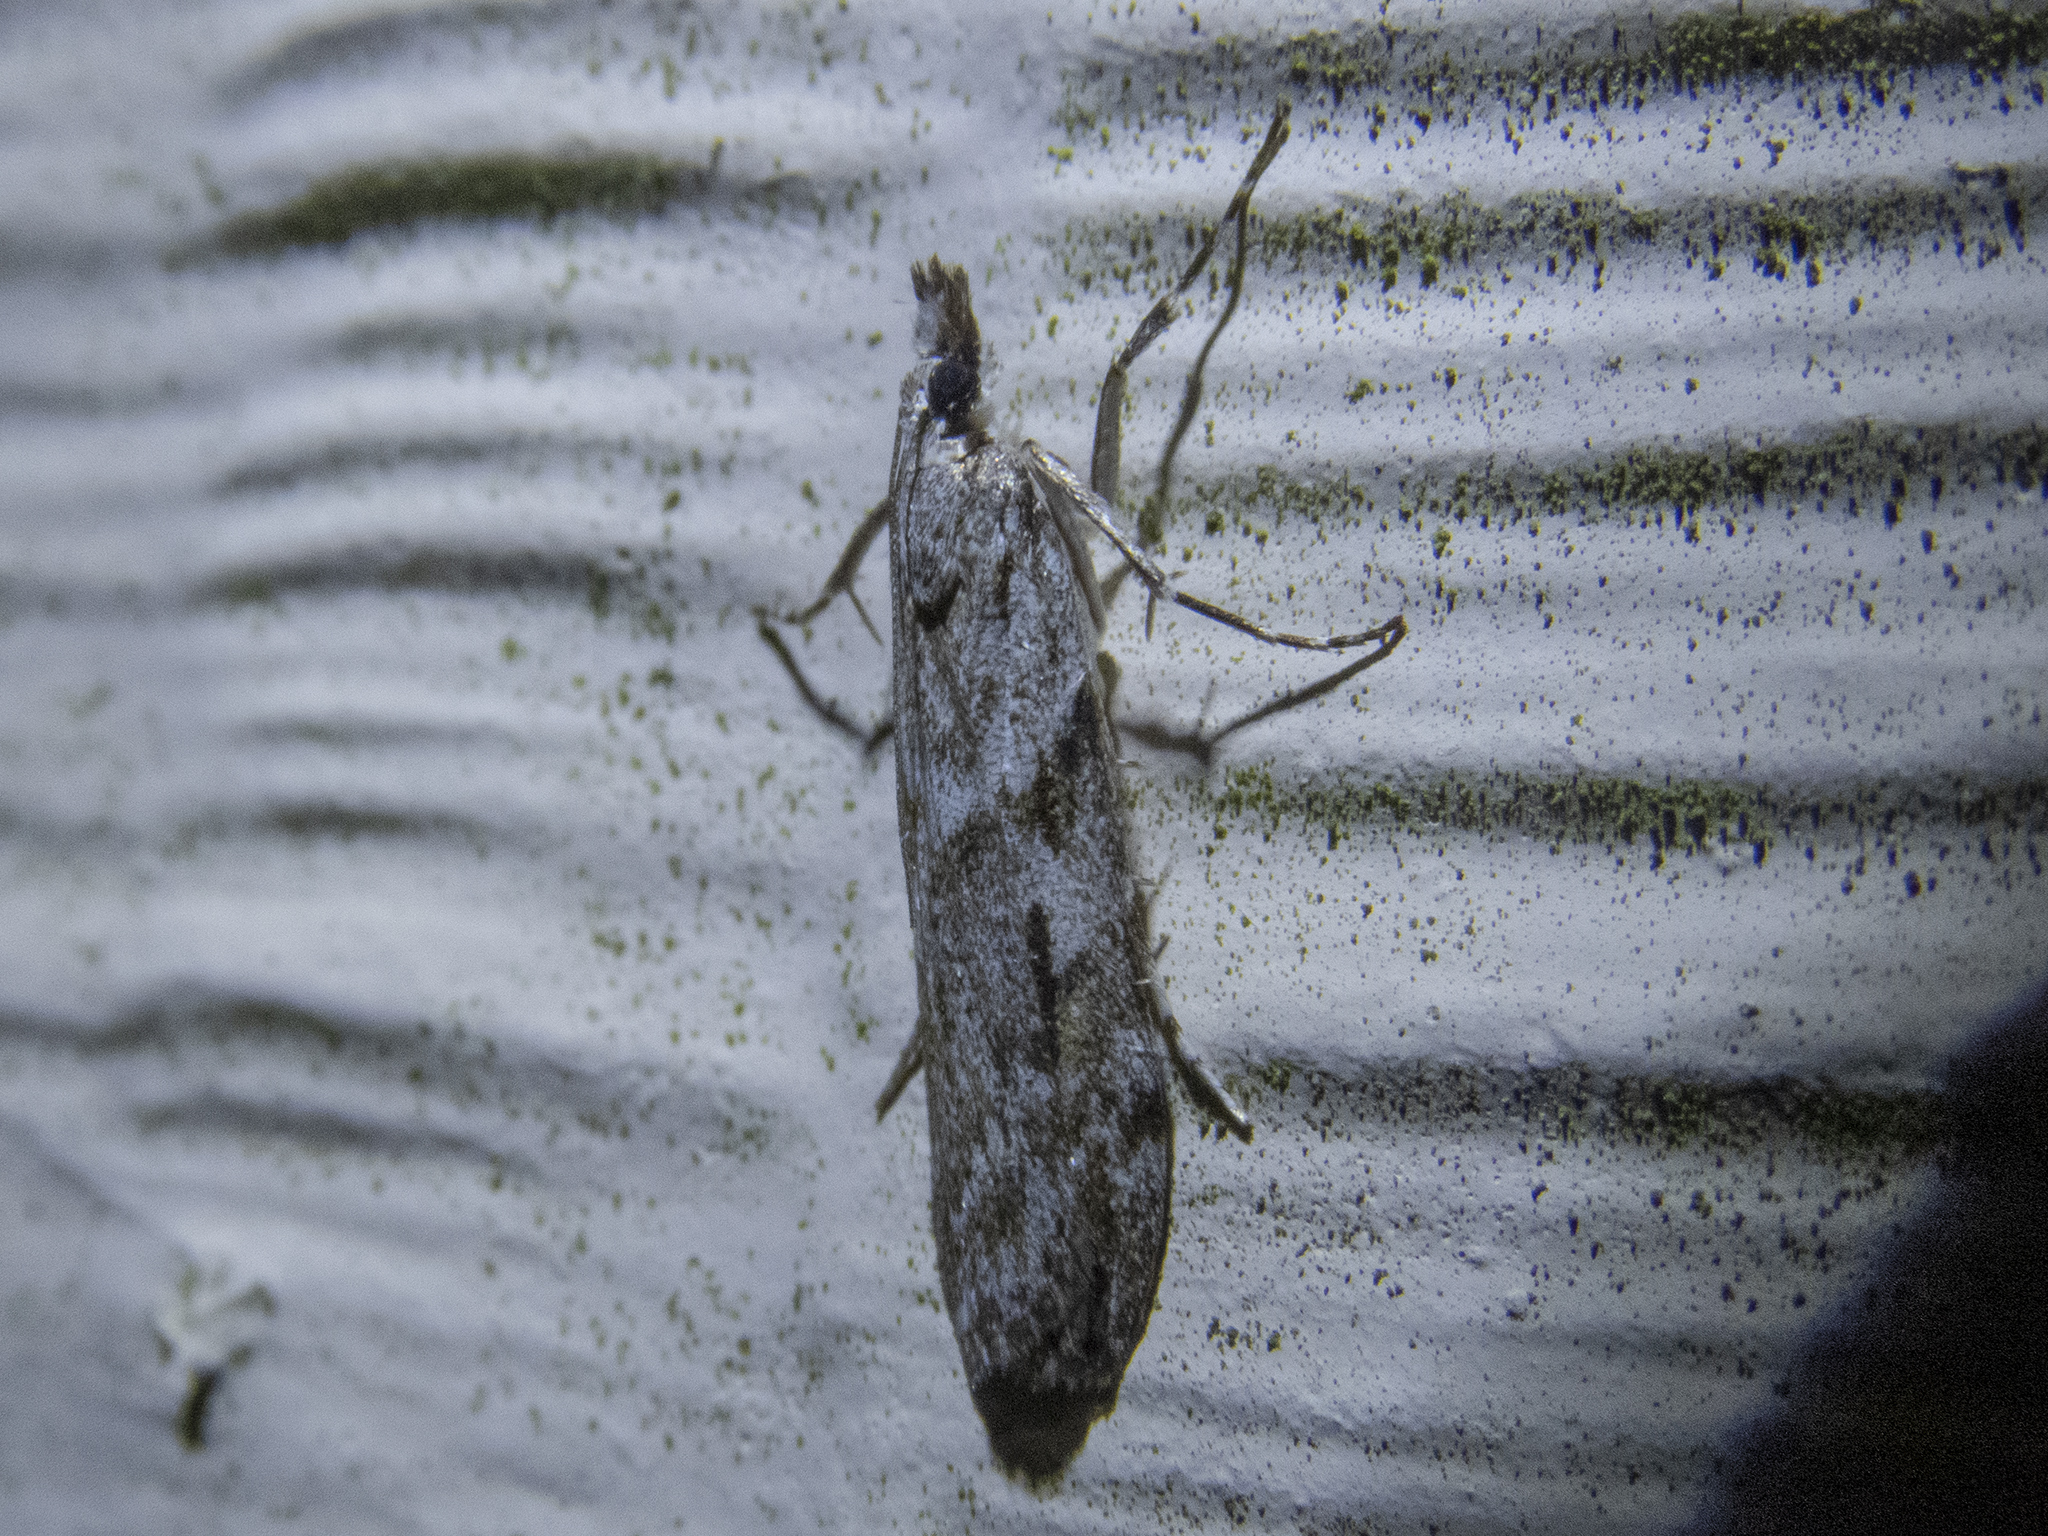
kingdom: Animalia
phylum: Arthropoda
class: Insecta
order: Lepidoptera
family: Crambidae
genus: Scoparia
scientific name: Scoparia halopis
